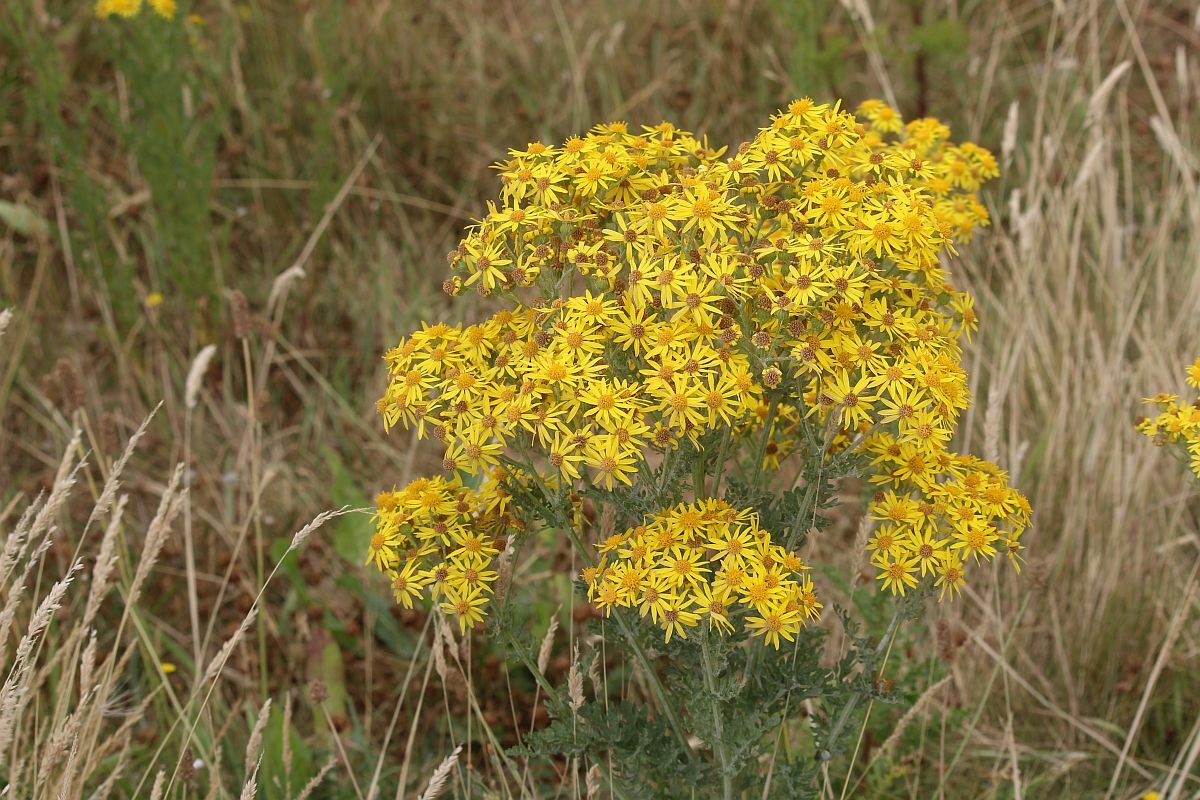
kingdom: Plantae
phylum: Tracheophyta
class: Magnoliopsida
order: Asterales
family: Asteraceae
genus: Jacobaea
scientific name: Jacobaea vulgaris
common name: Stinking willie
